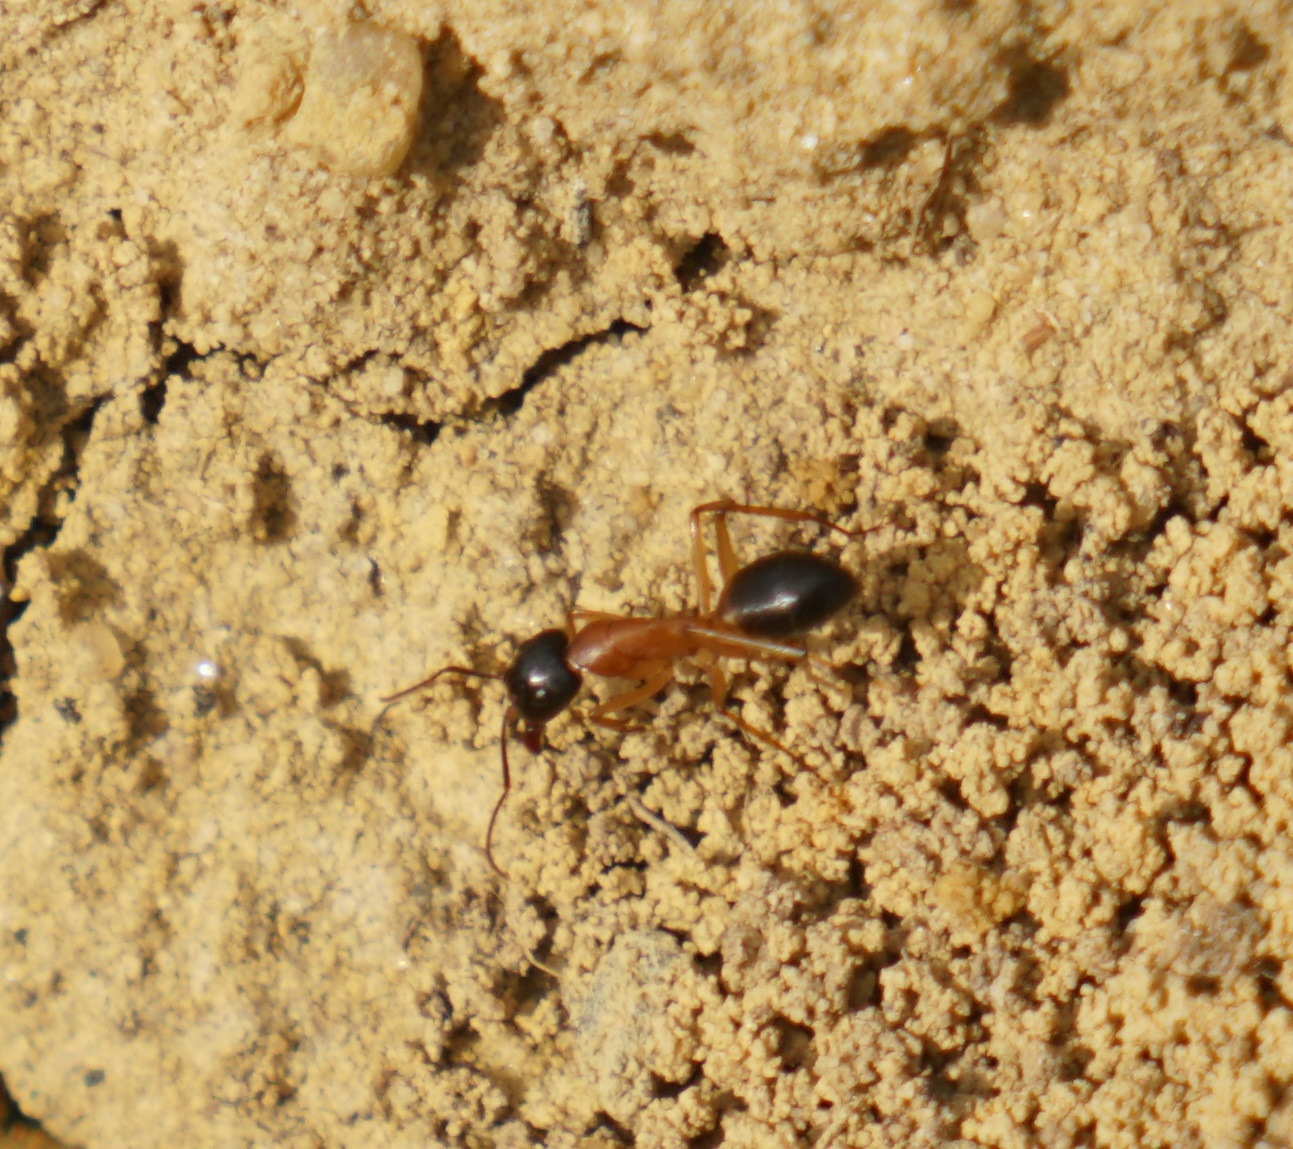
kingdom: Animalia
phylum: Arthropoda
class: Insecta
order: Hymenoptera
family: Formicidae
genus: Camponotus
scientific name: Camponotus consobrinus
